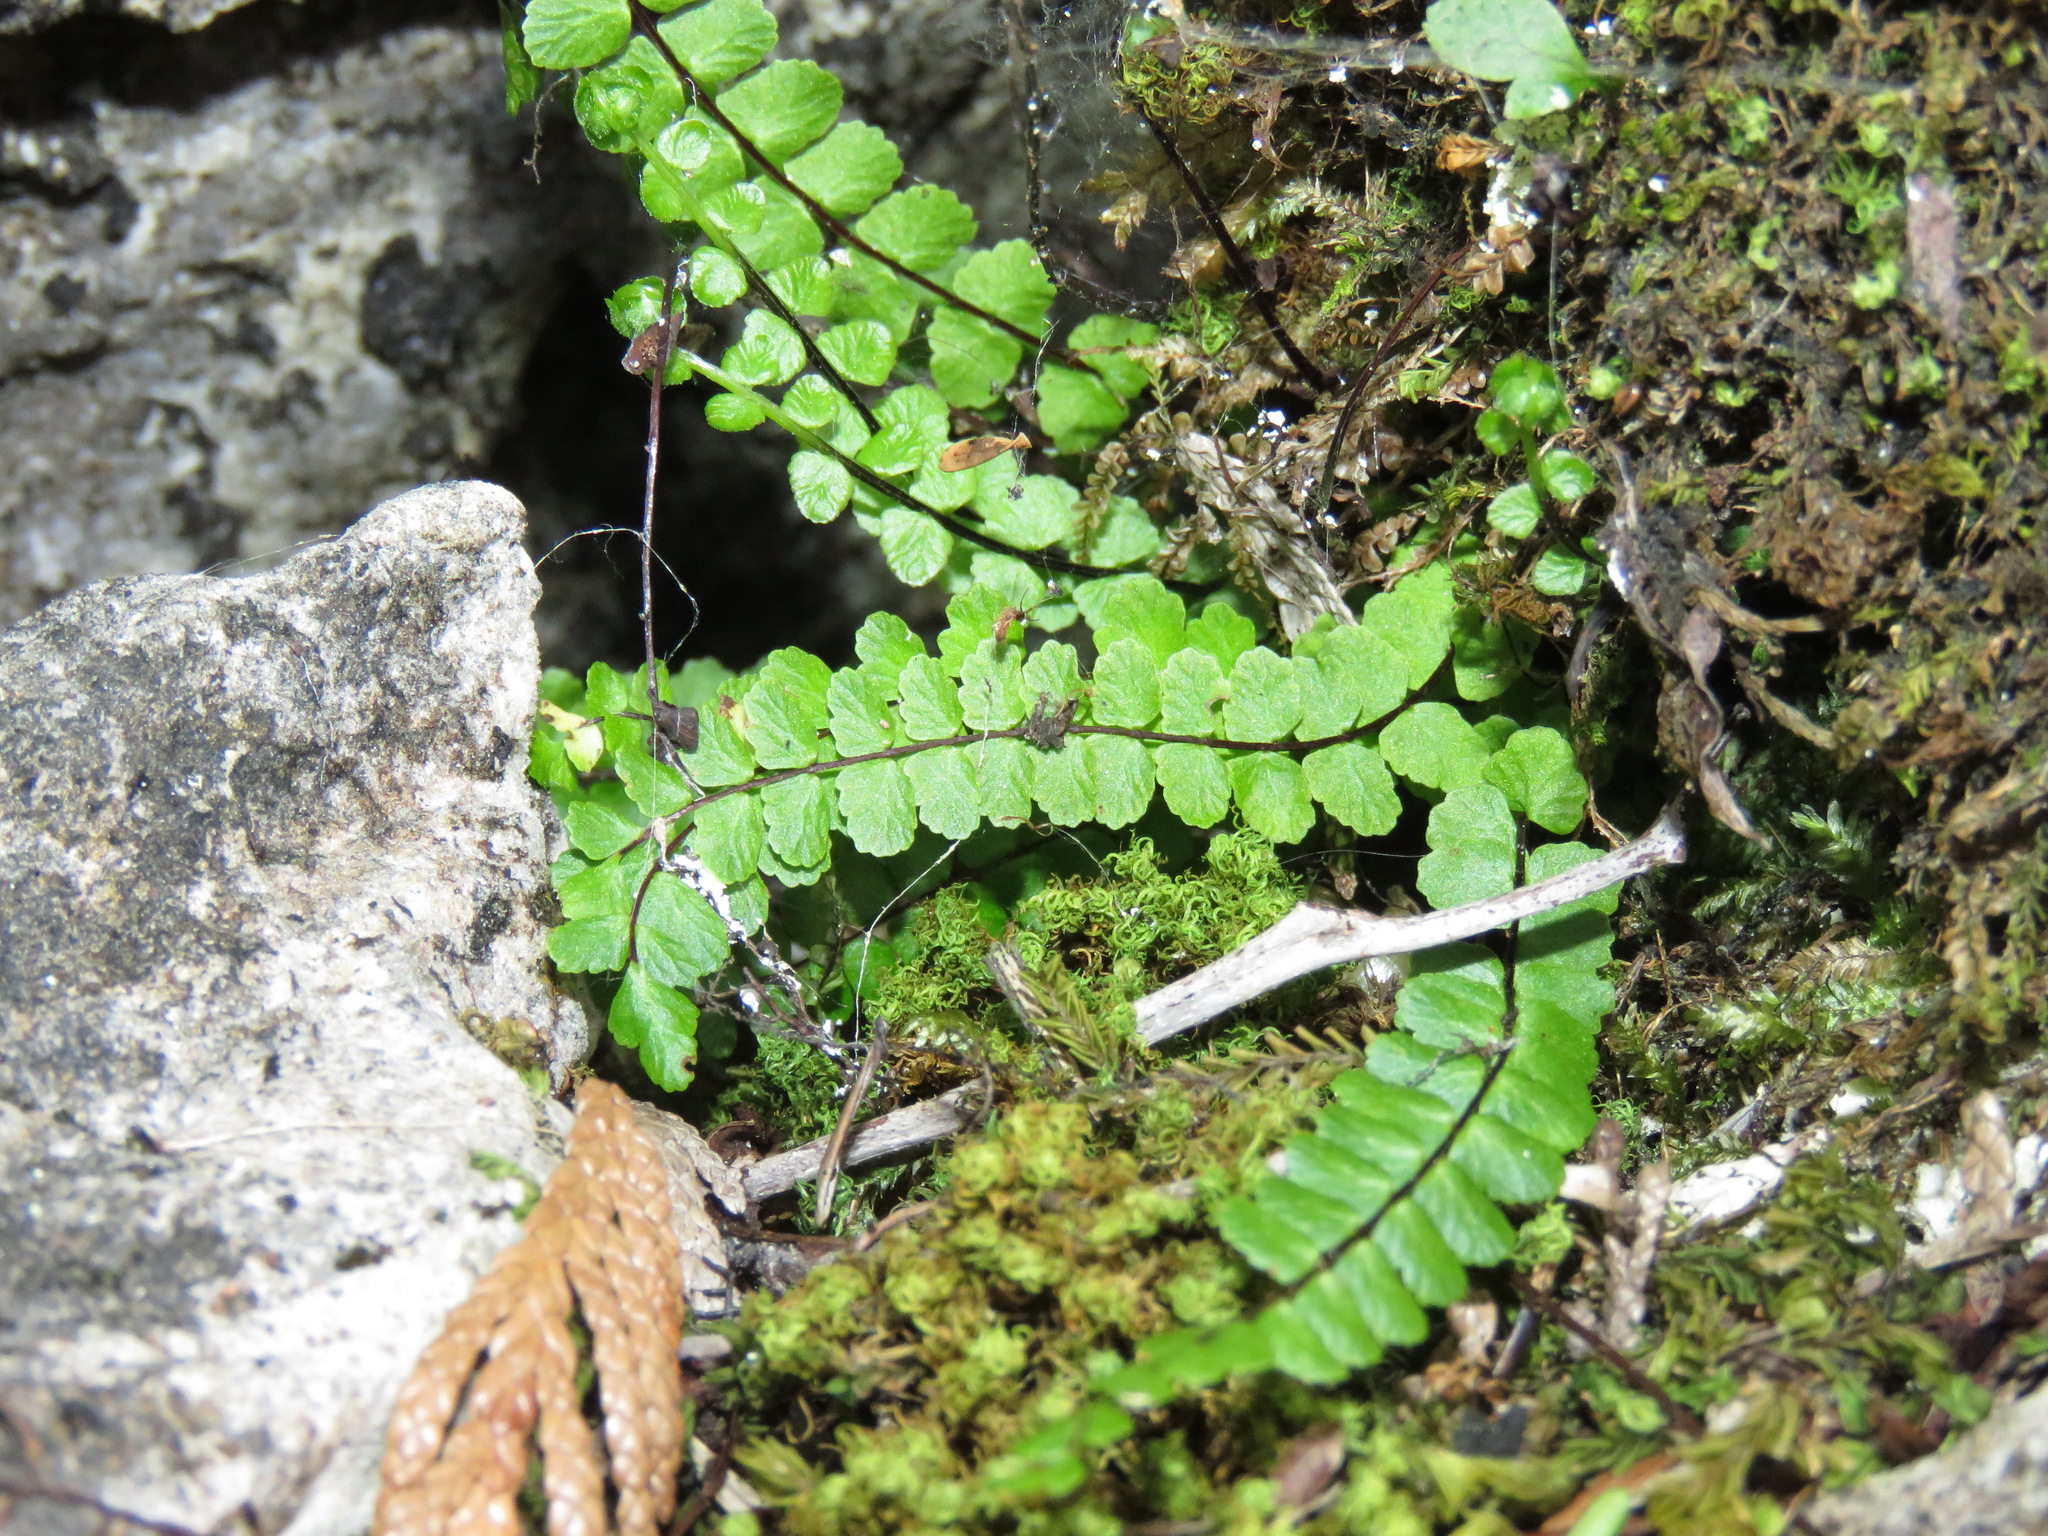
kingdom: Plantae
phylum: Tracheophyta
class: Polypodiopsida
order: Polypodiales
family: Aspleniaceae
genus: Asplenium
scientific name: Asplenium trichomanes
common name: Maidenhair spleenwort
